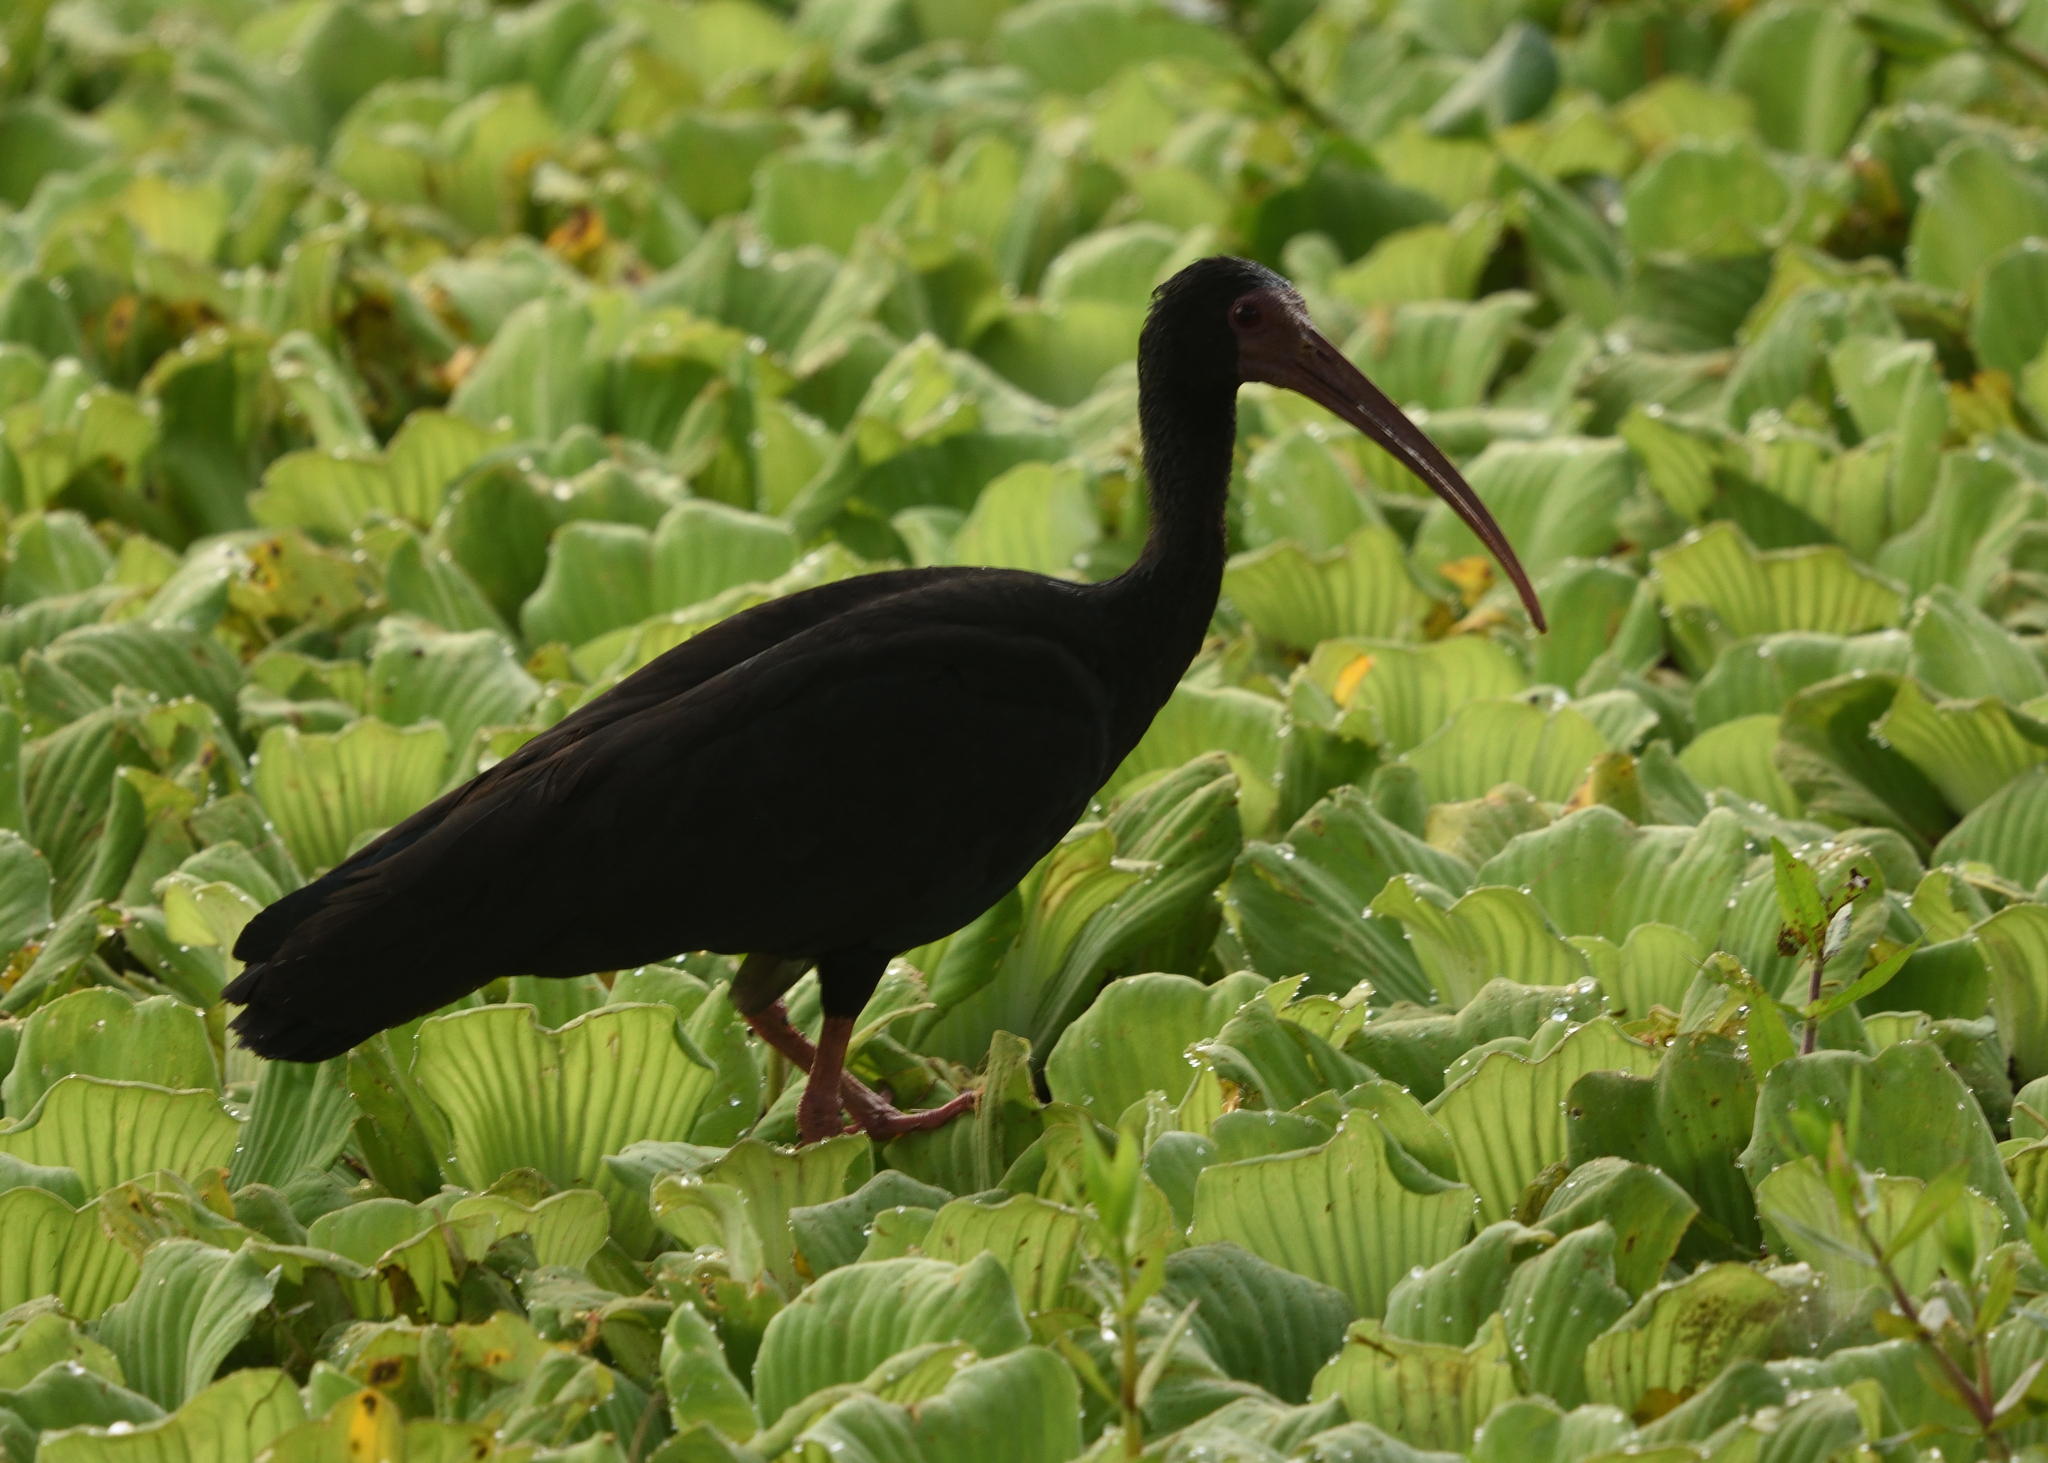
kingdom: Animalia
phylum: Chordata
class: Aves
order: Pelecaniformes
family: Threskiornithidae
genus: Phimosus
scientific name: Phimosus infuscatus
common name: Bare-faced ibis
